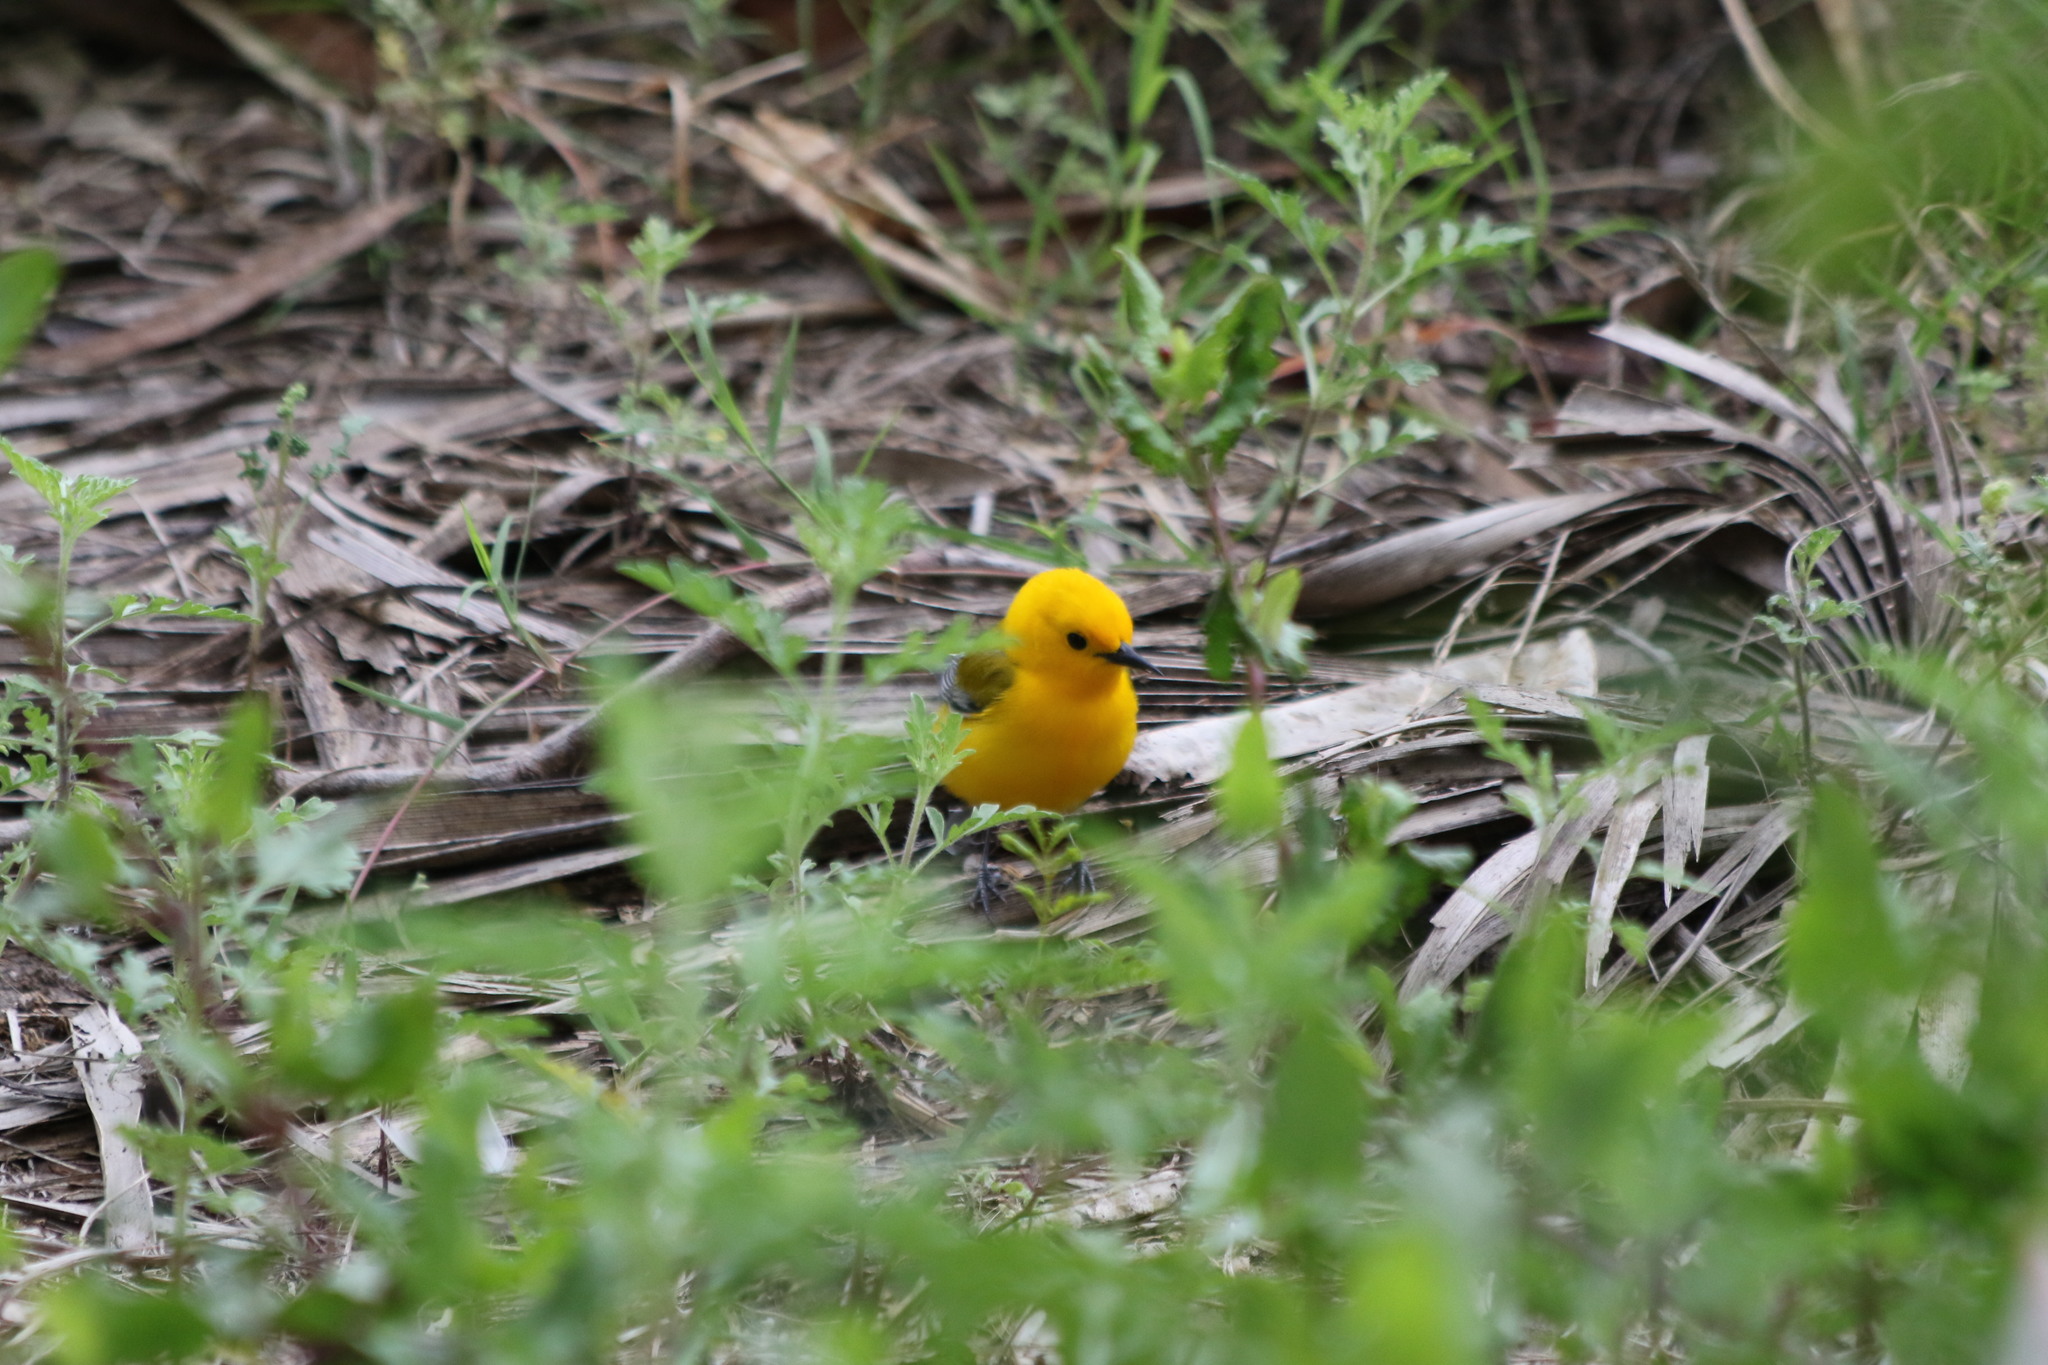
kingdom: Animalia
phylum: Chordata
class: Aves
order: Passeriformes
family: Parulidae
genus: Protonotaria
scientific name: Protonotaria citrea
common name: Prothonotary warbler
